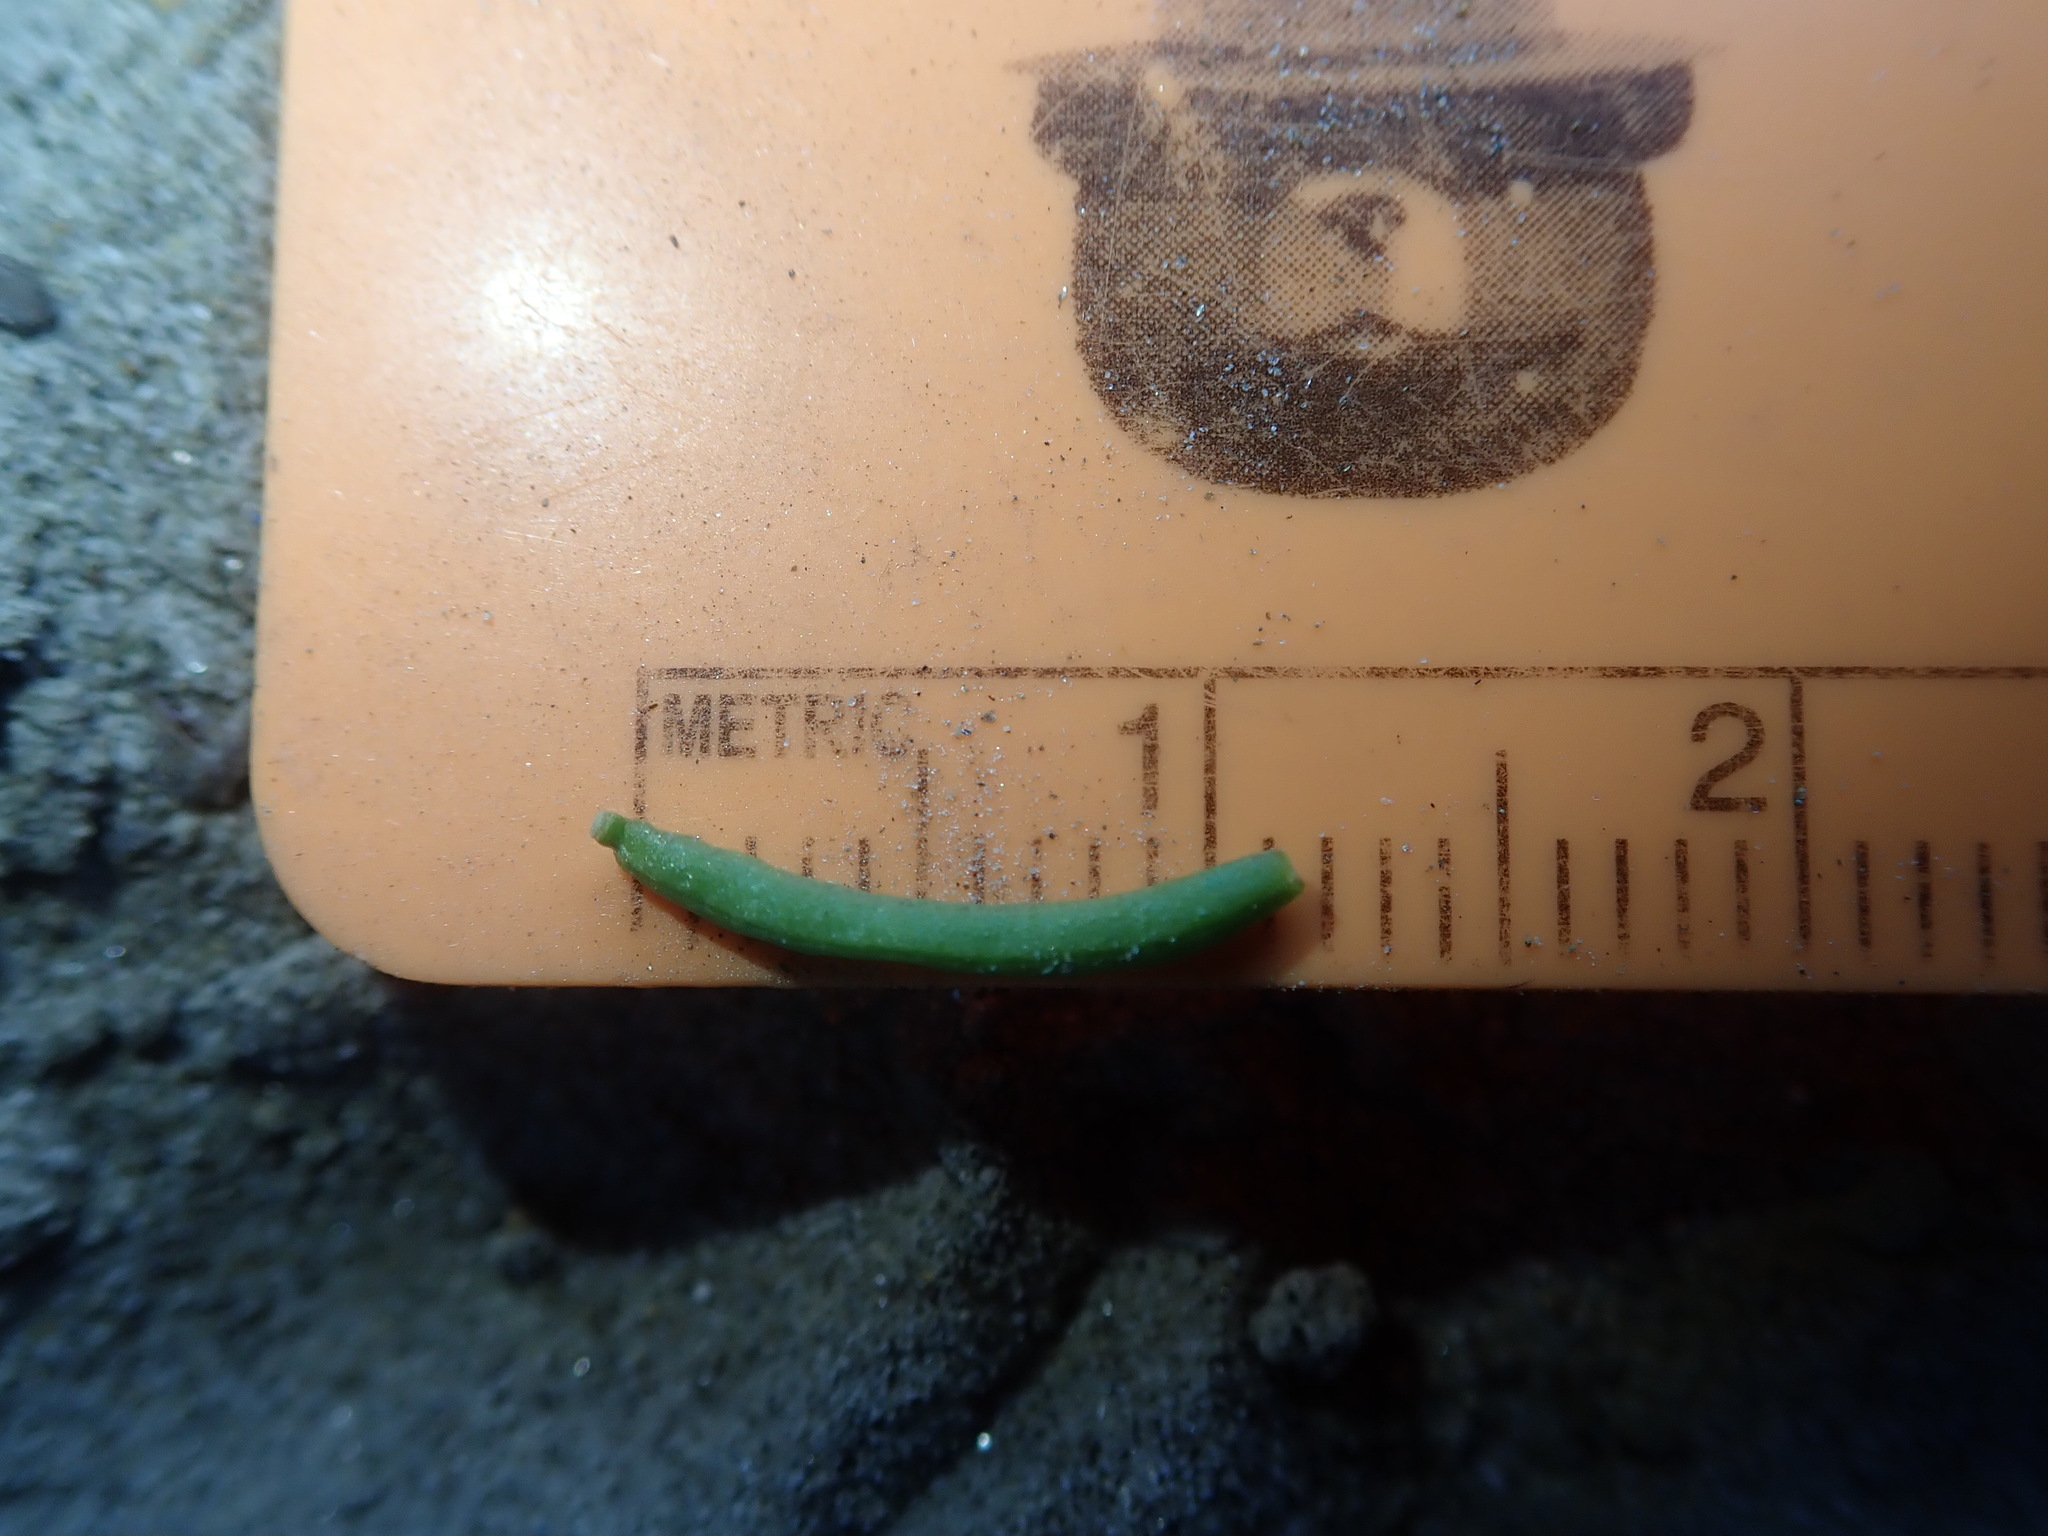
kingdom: Plantae
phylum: Tracheophyta
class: Magnoliopsida
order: Brassicales
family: Brassicaceae
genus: Rorippa
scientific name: Rorippa curvisiliqua
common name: Curve-pod yellow cress
